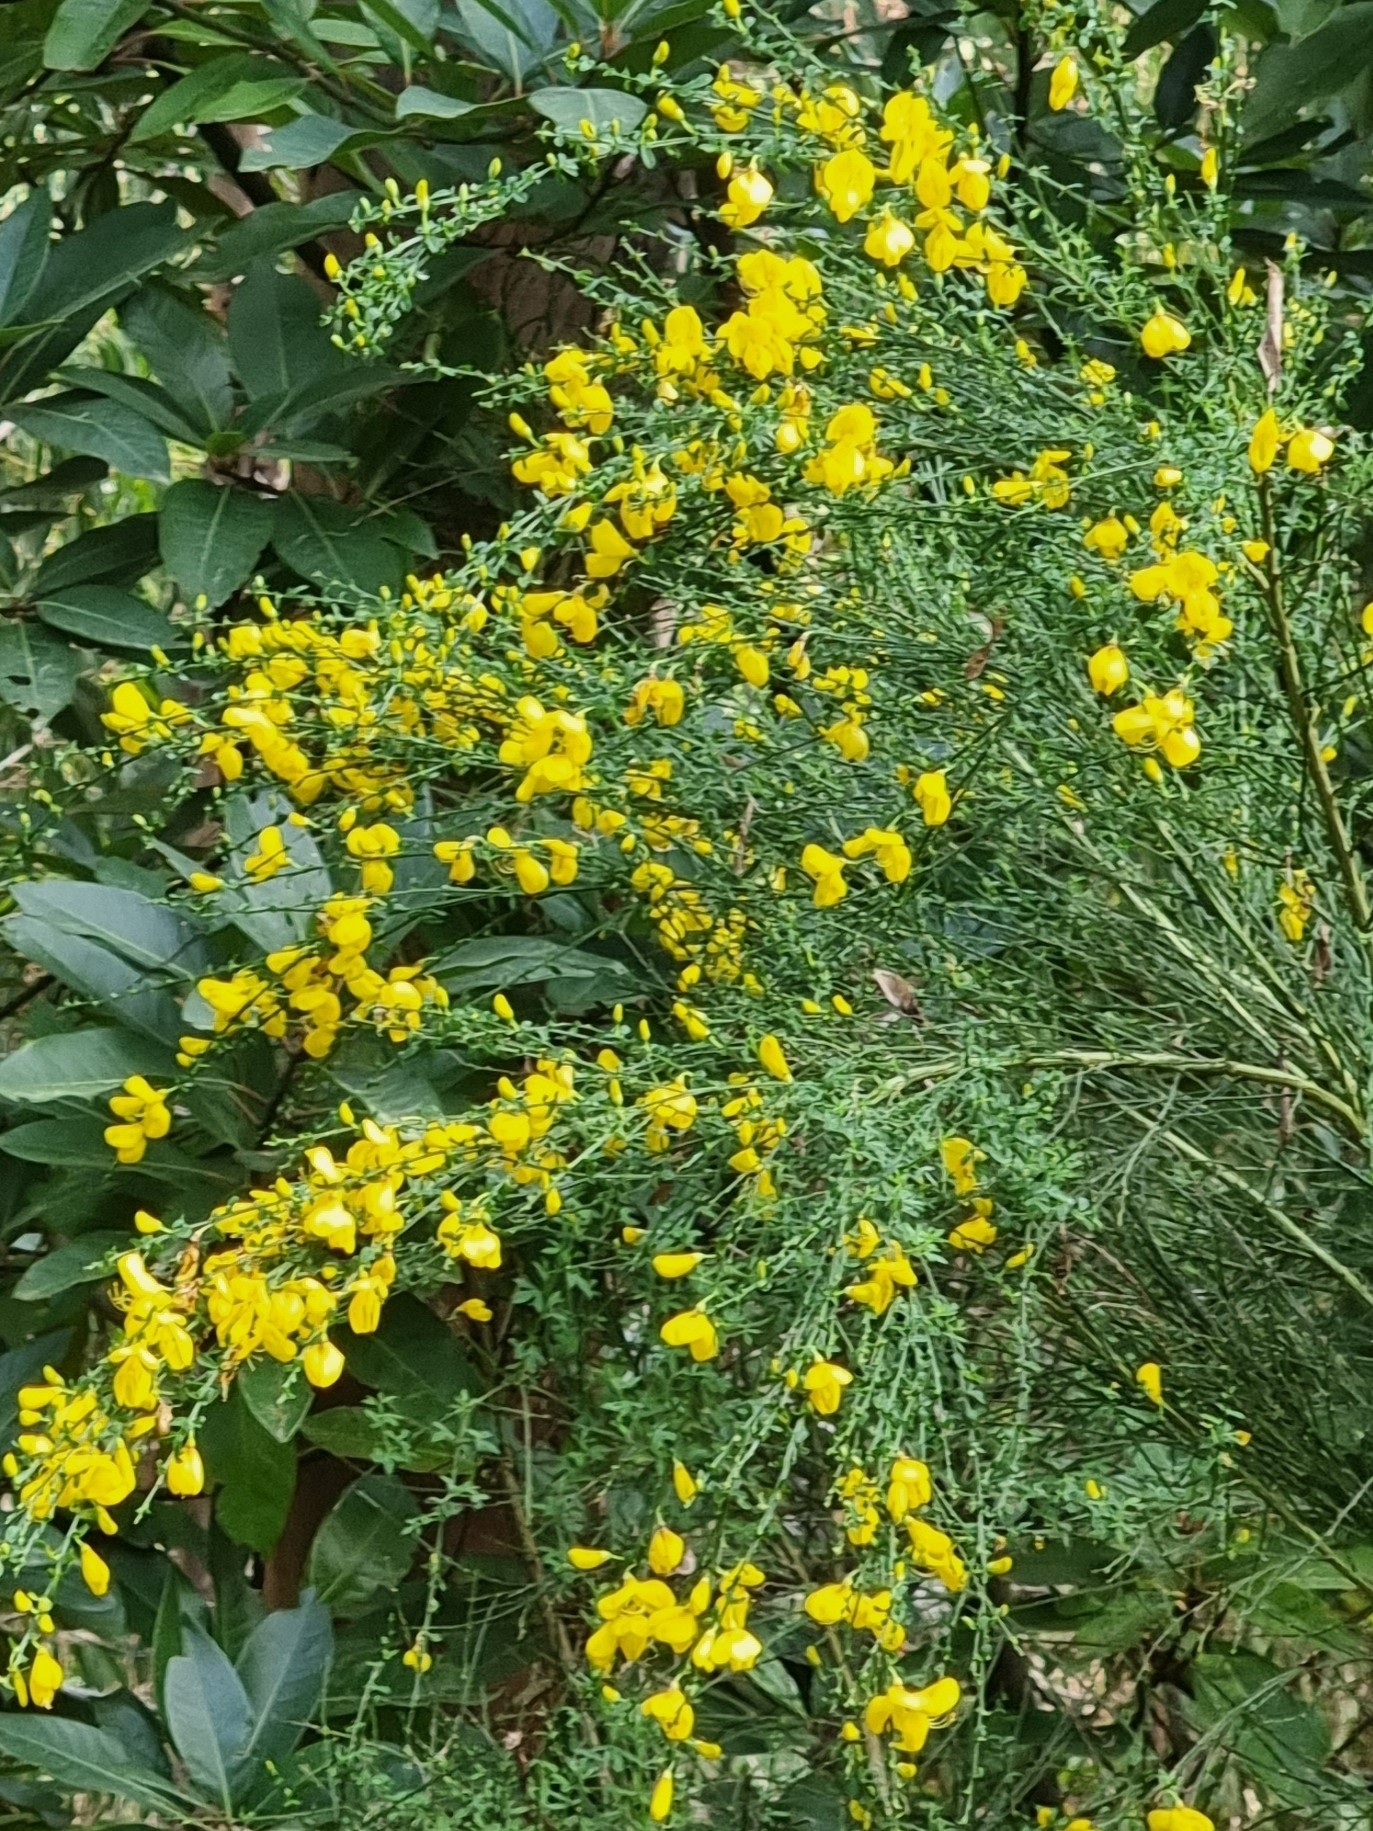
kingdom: Plantae
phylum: Tracheophyta
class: Magnoliopsida
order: Fabales
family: Fabaceae
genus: Cytisus
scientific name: Cytisus scoparius
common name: Scotch broom
